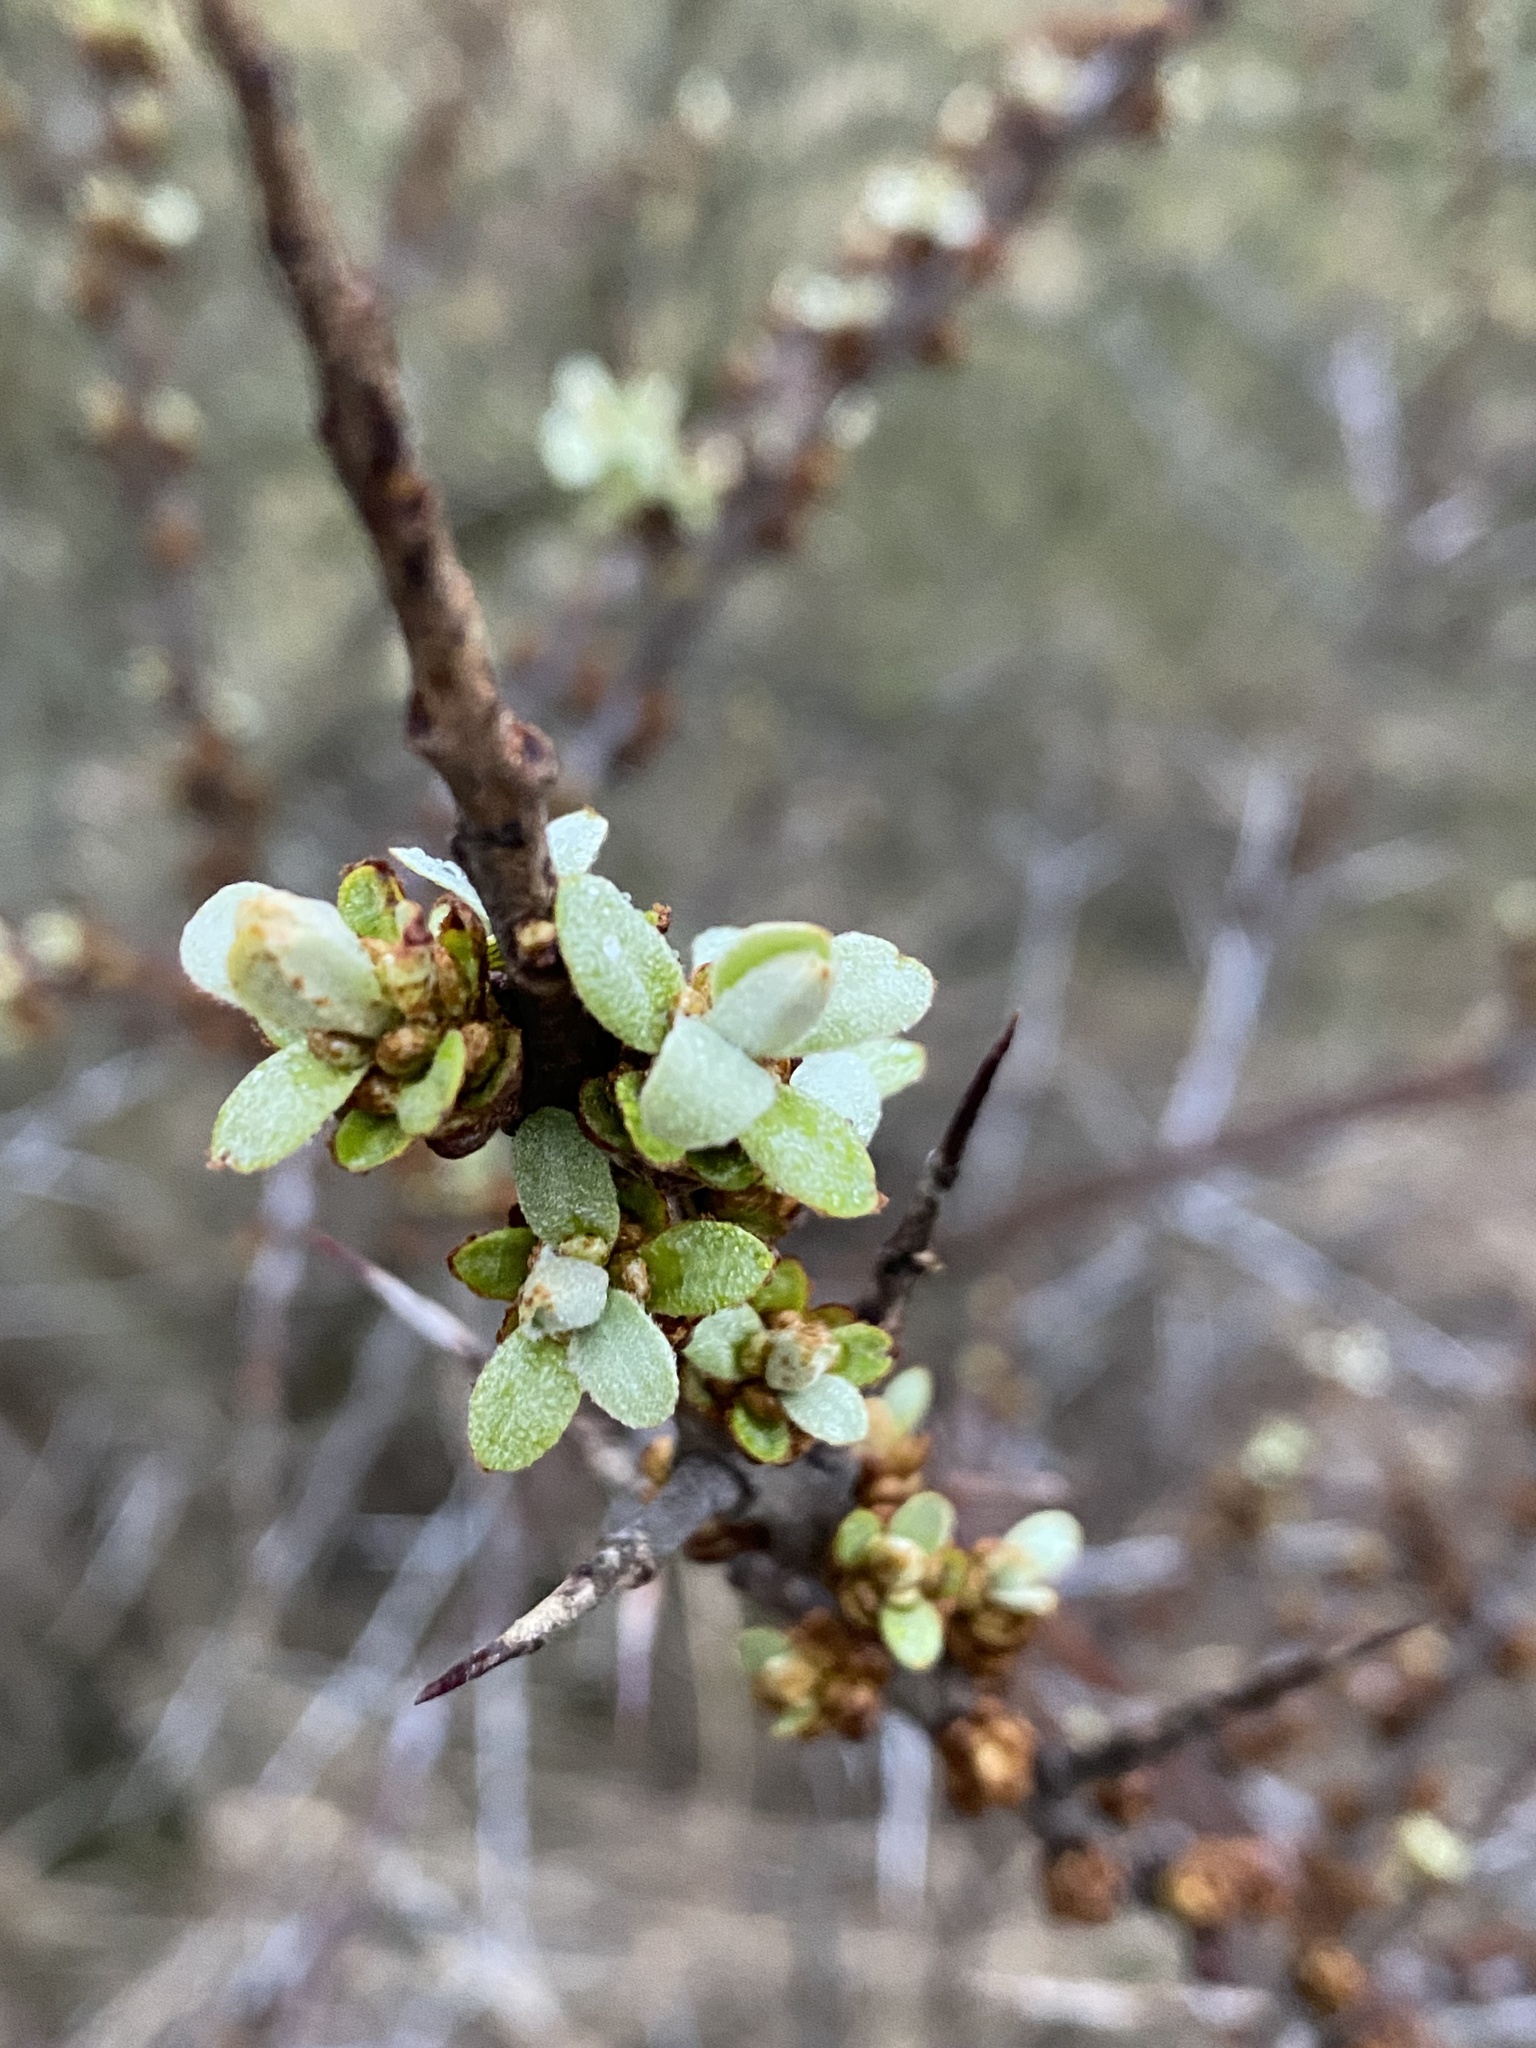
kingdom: Plantae
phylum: Tracheophyta
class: Magnoliopsida
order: Rosales
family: Elaeagnaceae
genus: Hippophae
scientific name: Hippophae rhamnoides
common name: Sea-buckthorn
